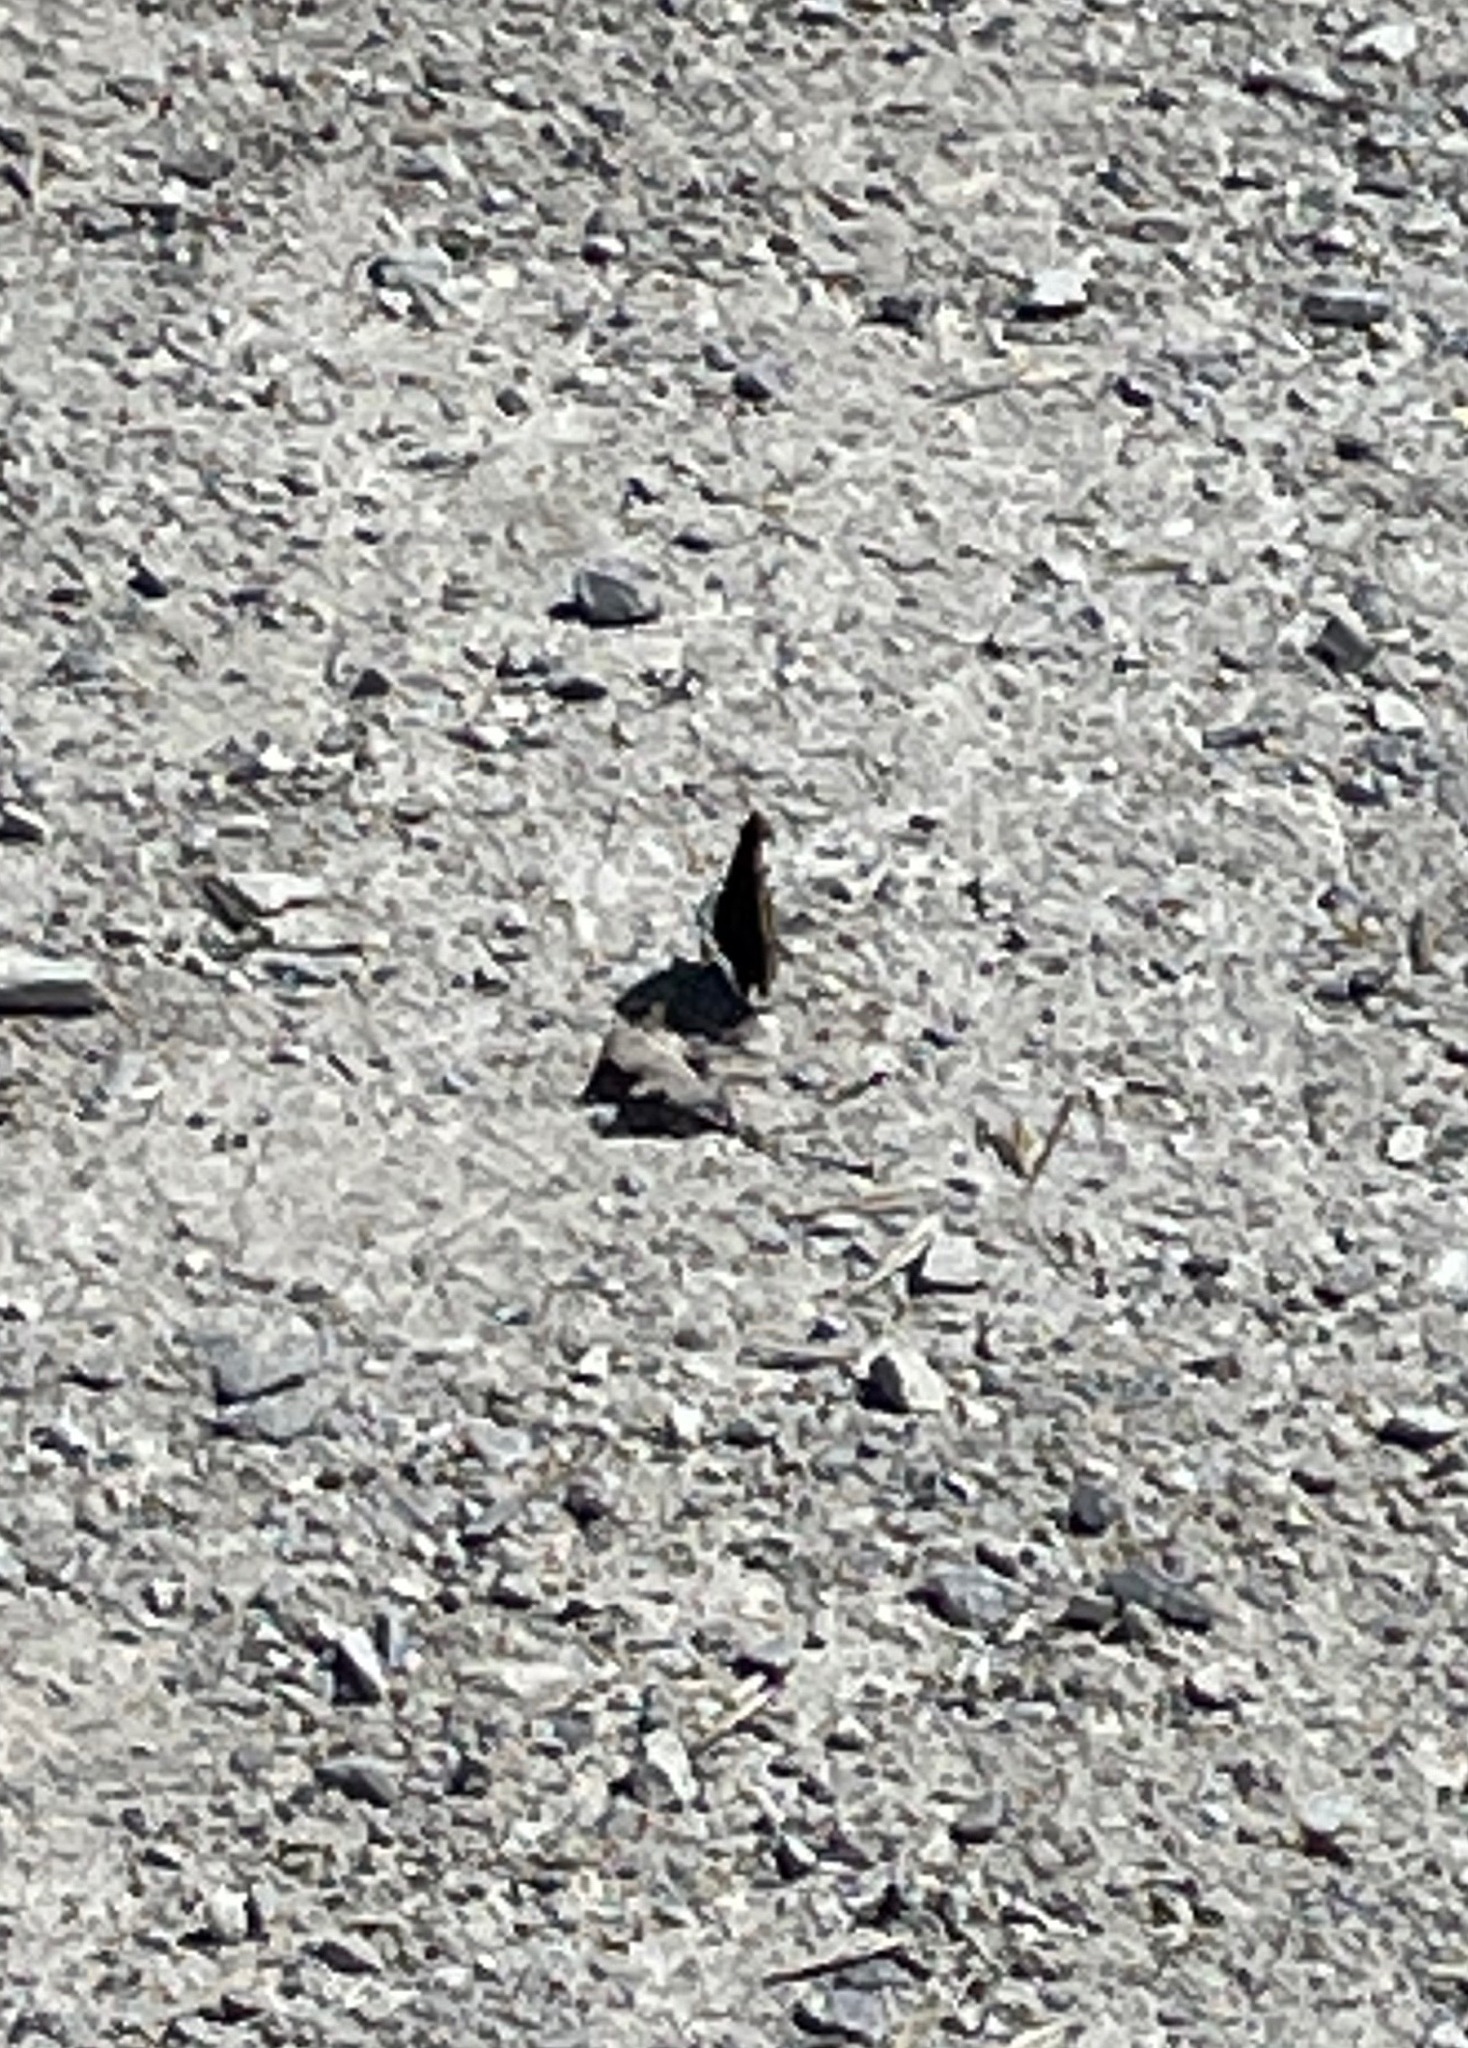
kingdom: Animalia
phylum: Arthropoda
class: Insecta
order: Lepidoptera
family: Nymphalidae
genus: Nymphalis
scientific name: Nymphalis antiopa
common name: Camberwell beauty
